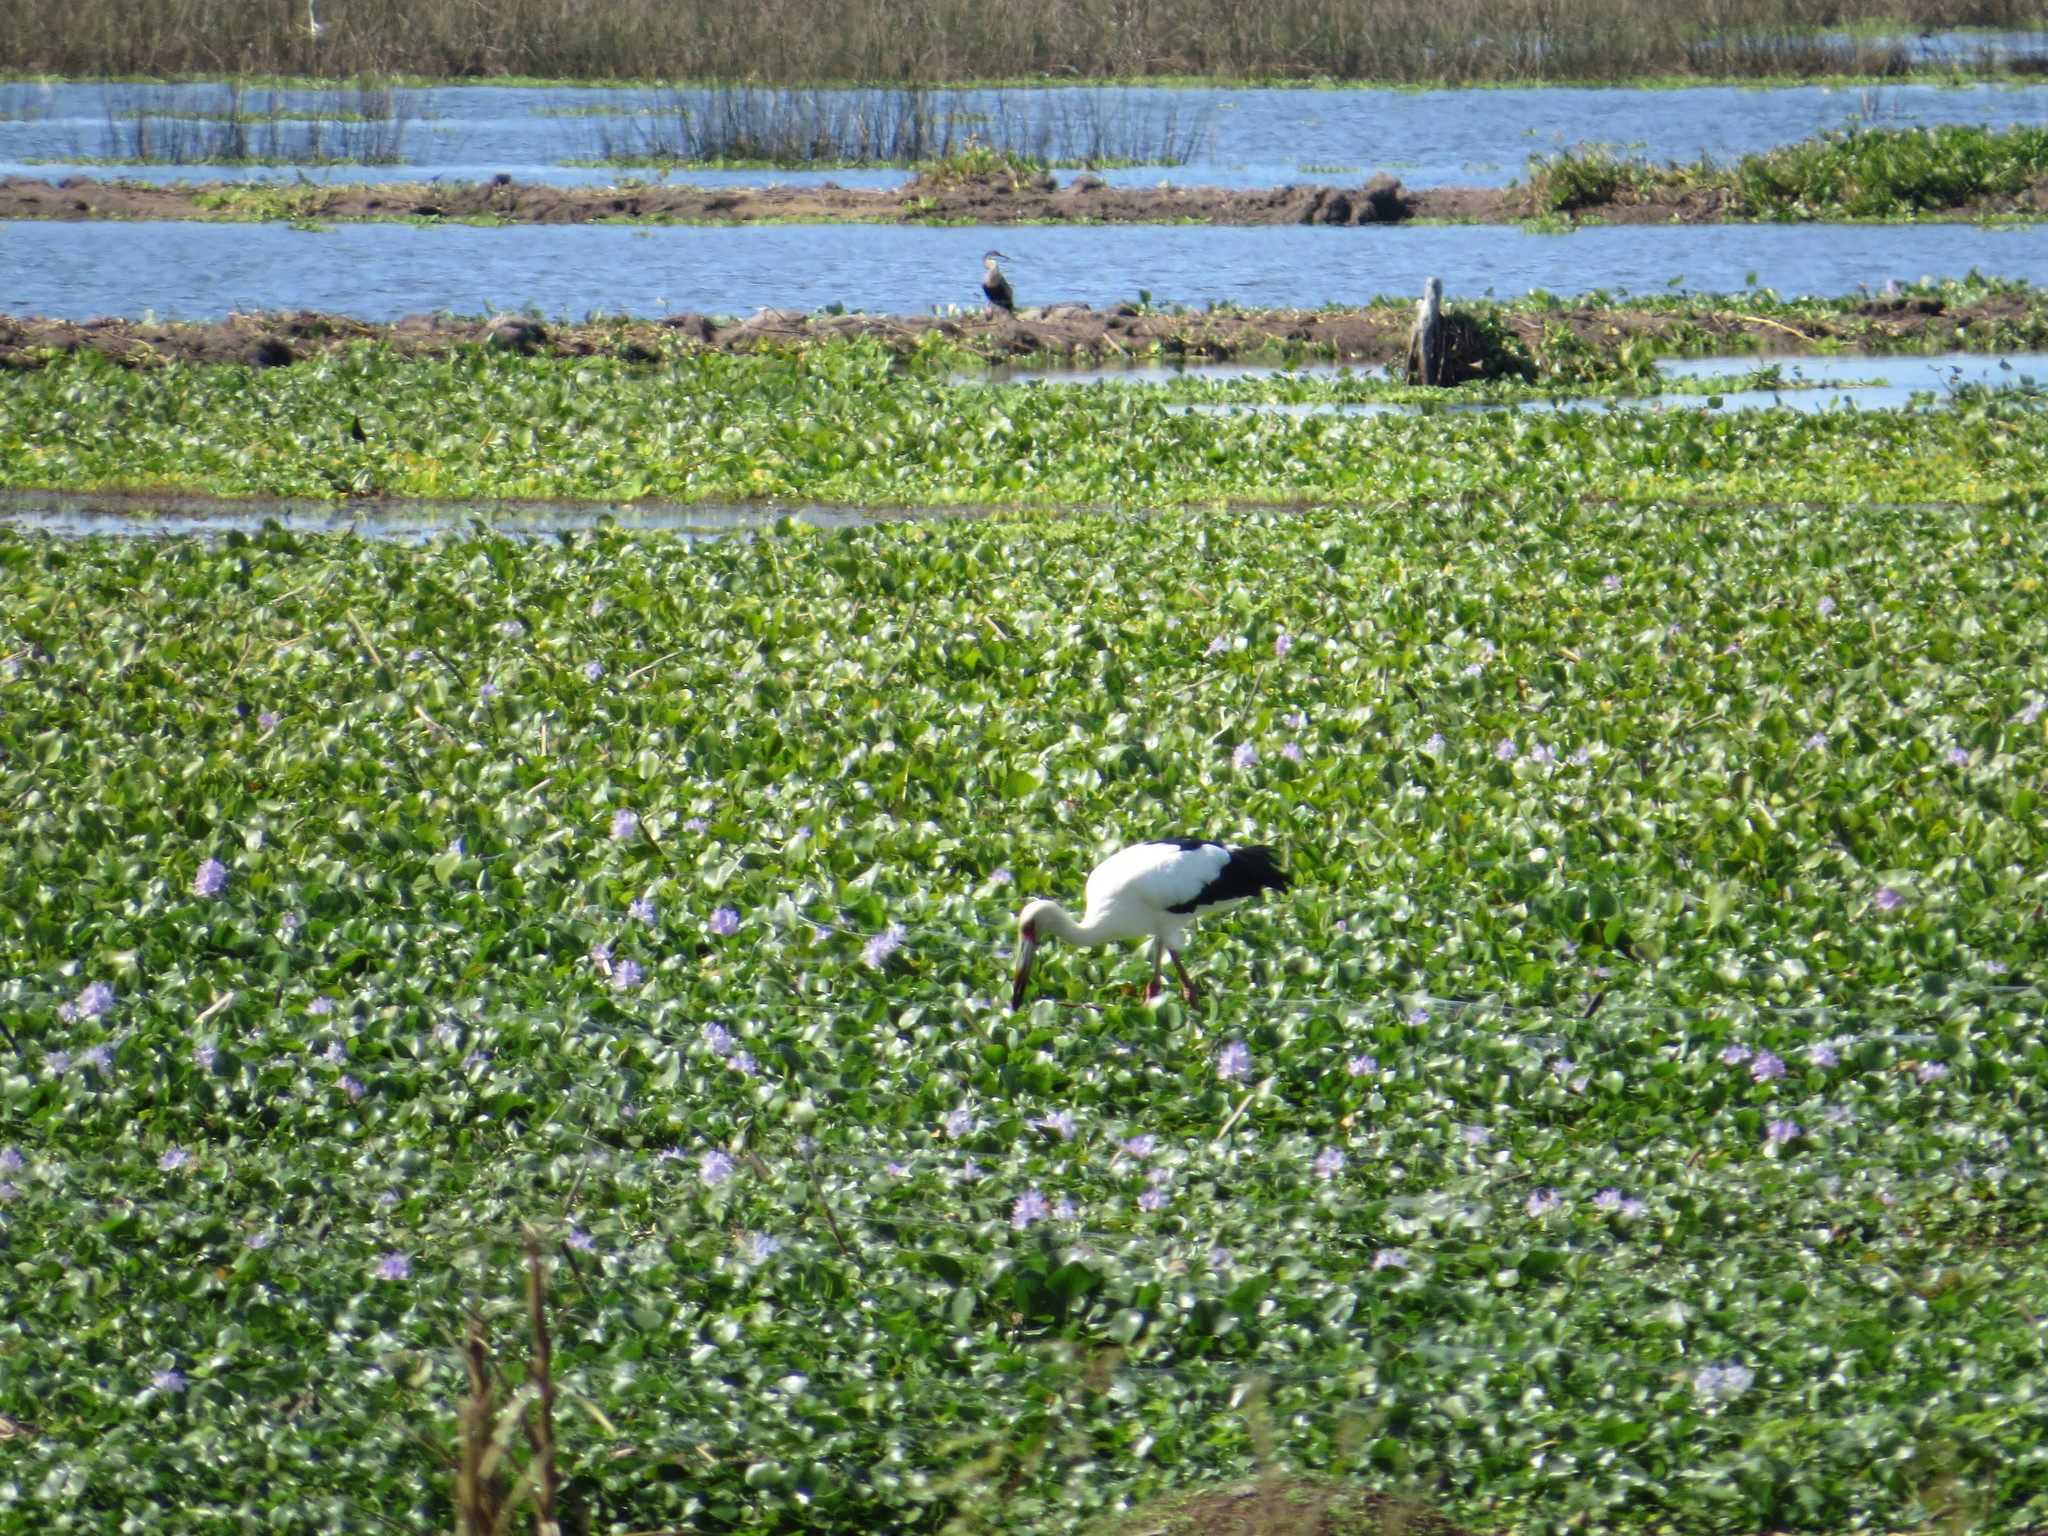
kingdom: Animalia
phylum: Chordata
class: Aves
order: Ciconiiformes
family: Ciconiidae
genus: Ciconia
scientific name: Ciconia maguari
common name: Maguari stork
